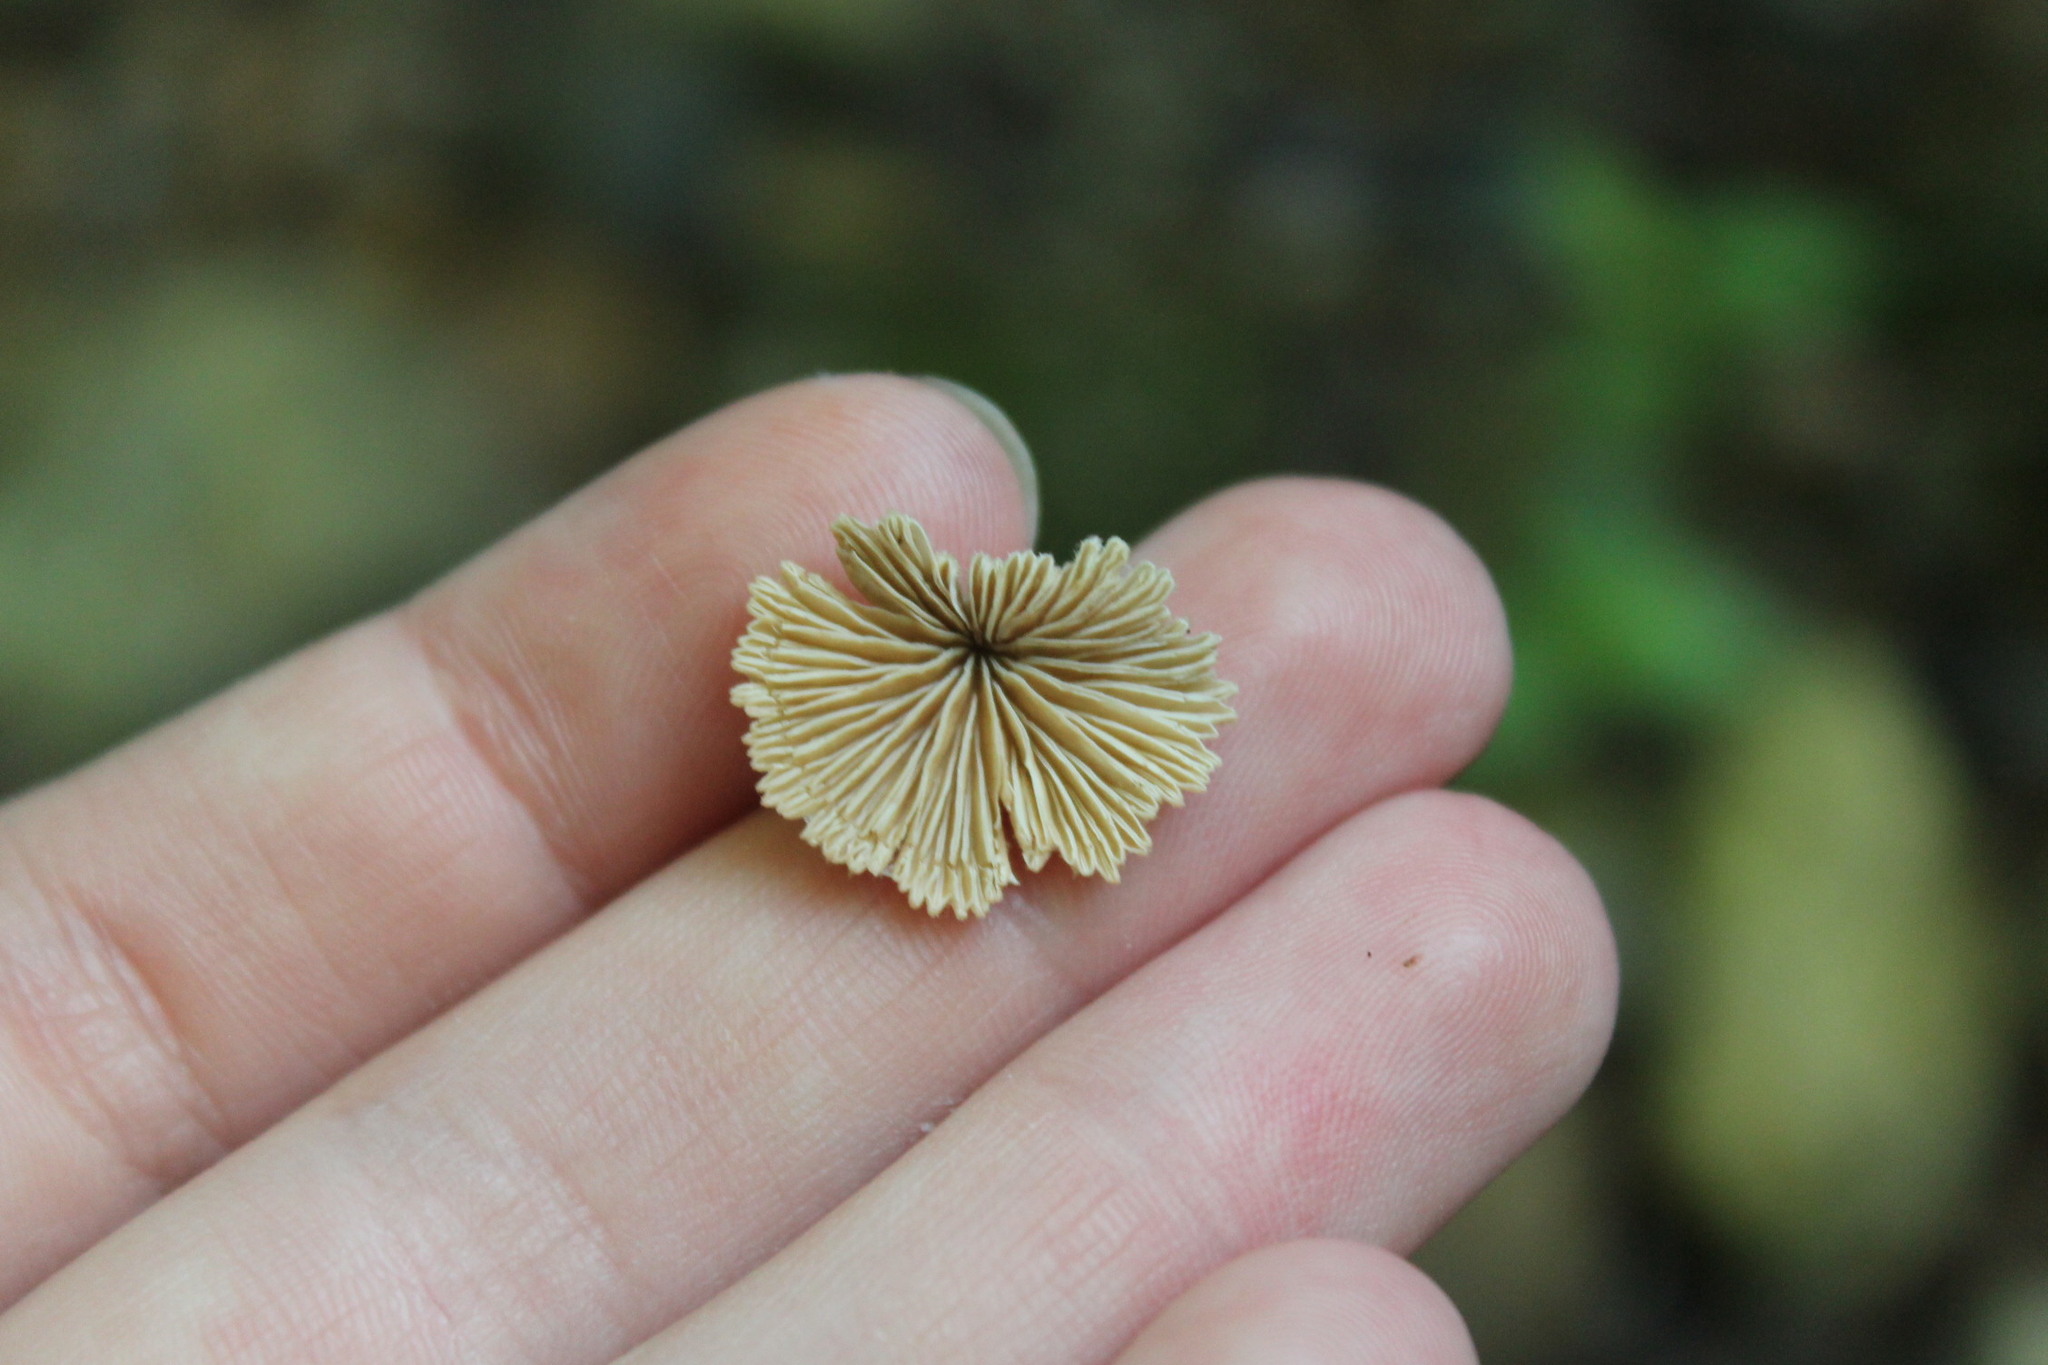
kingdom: Fungi
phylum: Basidiomycota
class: Agaricomycetes
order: Agaricales
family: Schizophyllaceae
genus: Schizophyllum
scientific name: Schizophyllum commune
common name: Common porecrust
